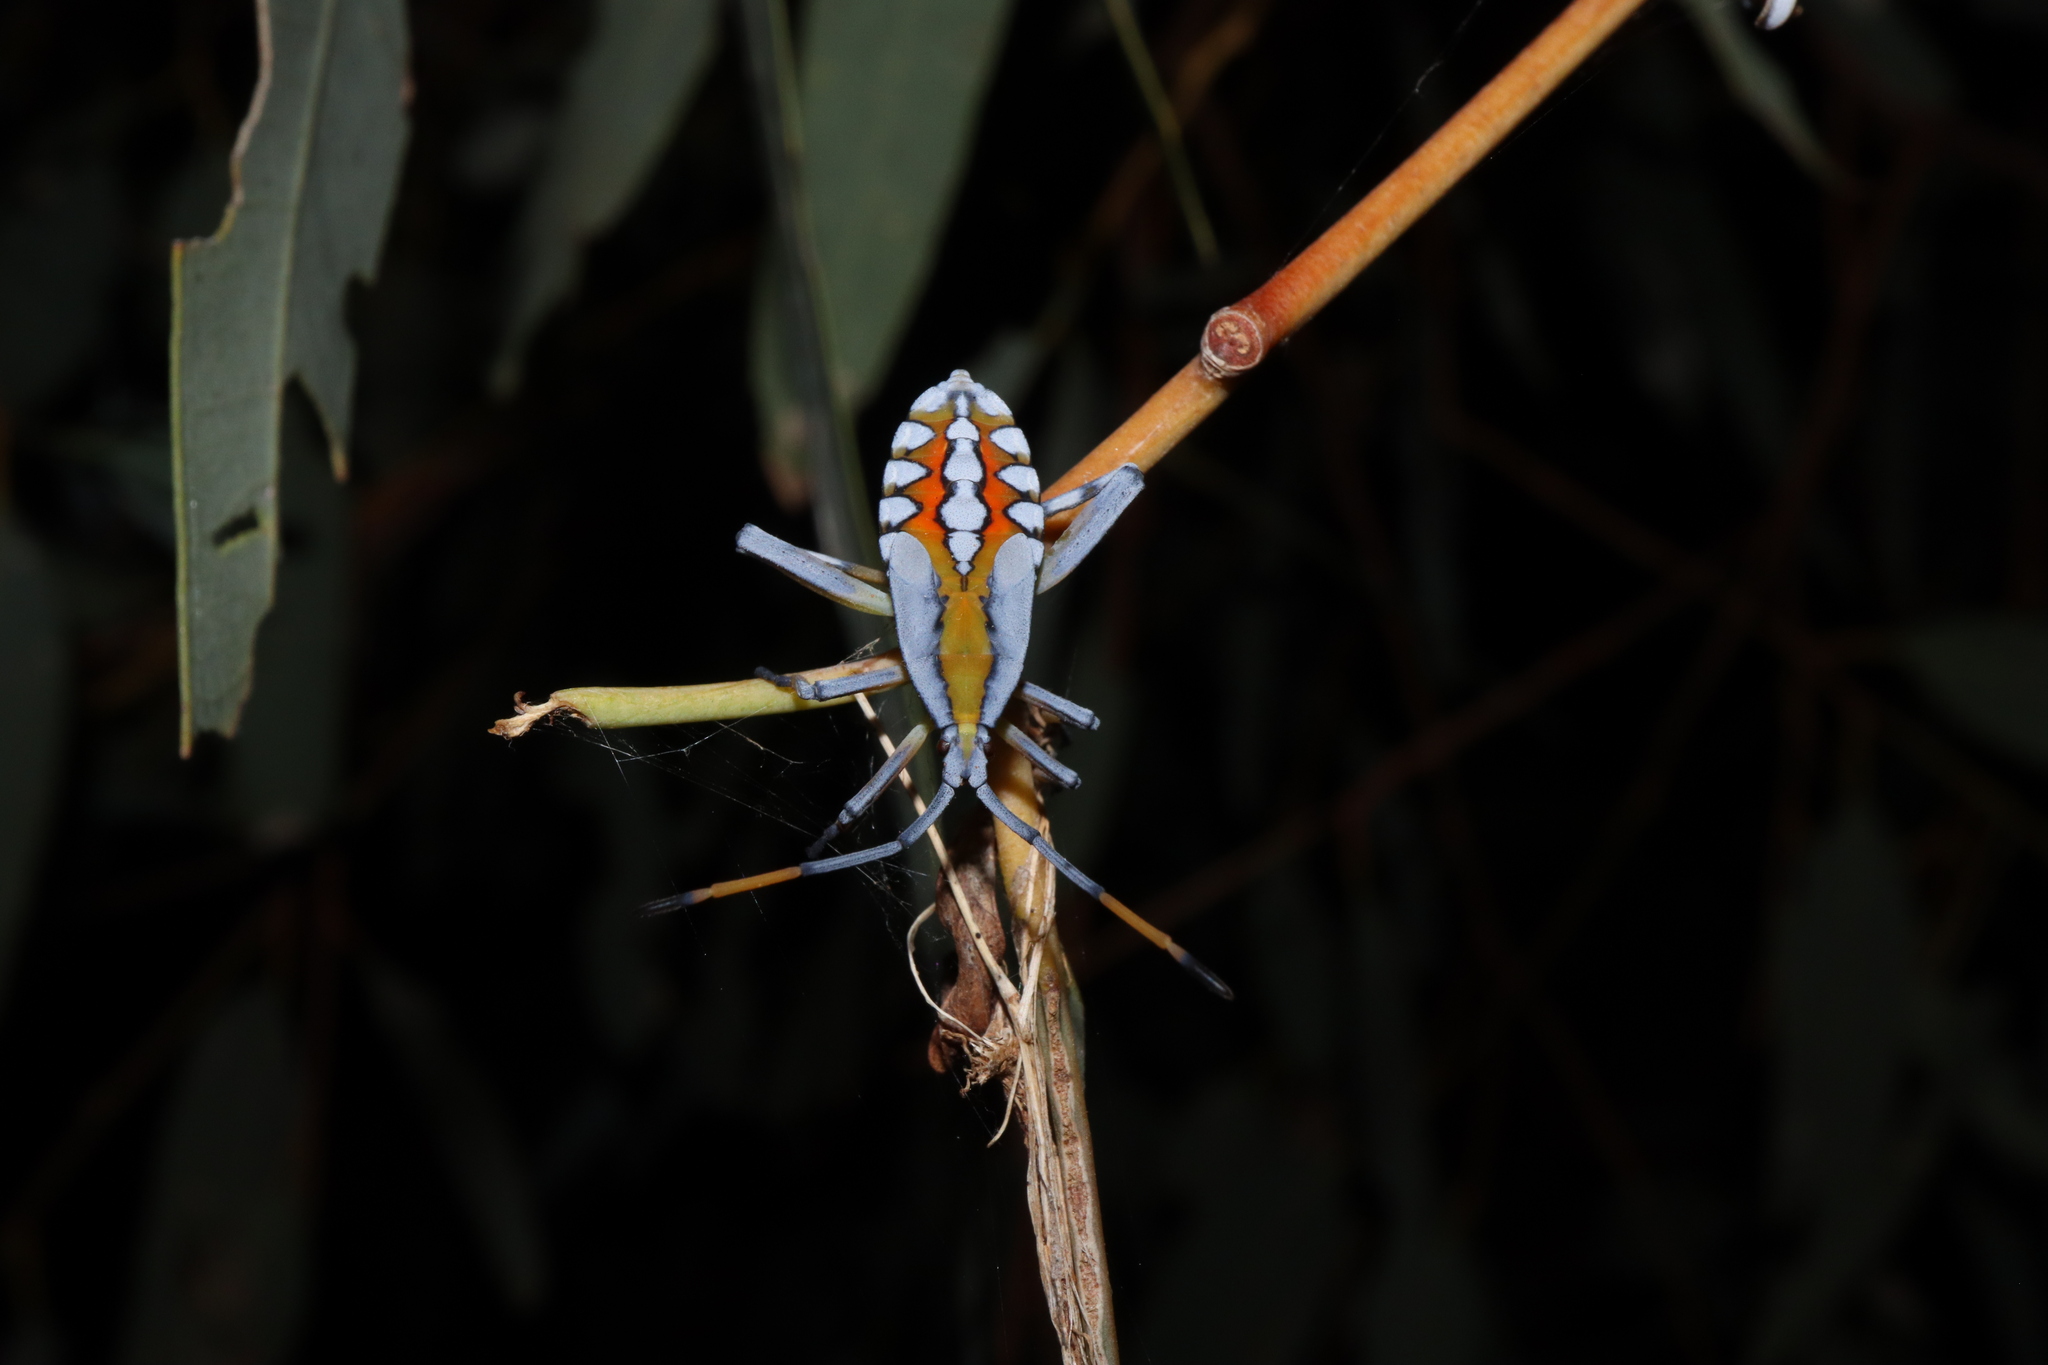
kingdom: Animalia
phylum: Arthropoda
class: Insecta
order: Hemiptera
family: Coreidae
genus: Amorbus
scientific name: Amorbus alternatus
